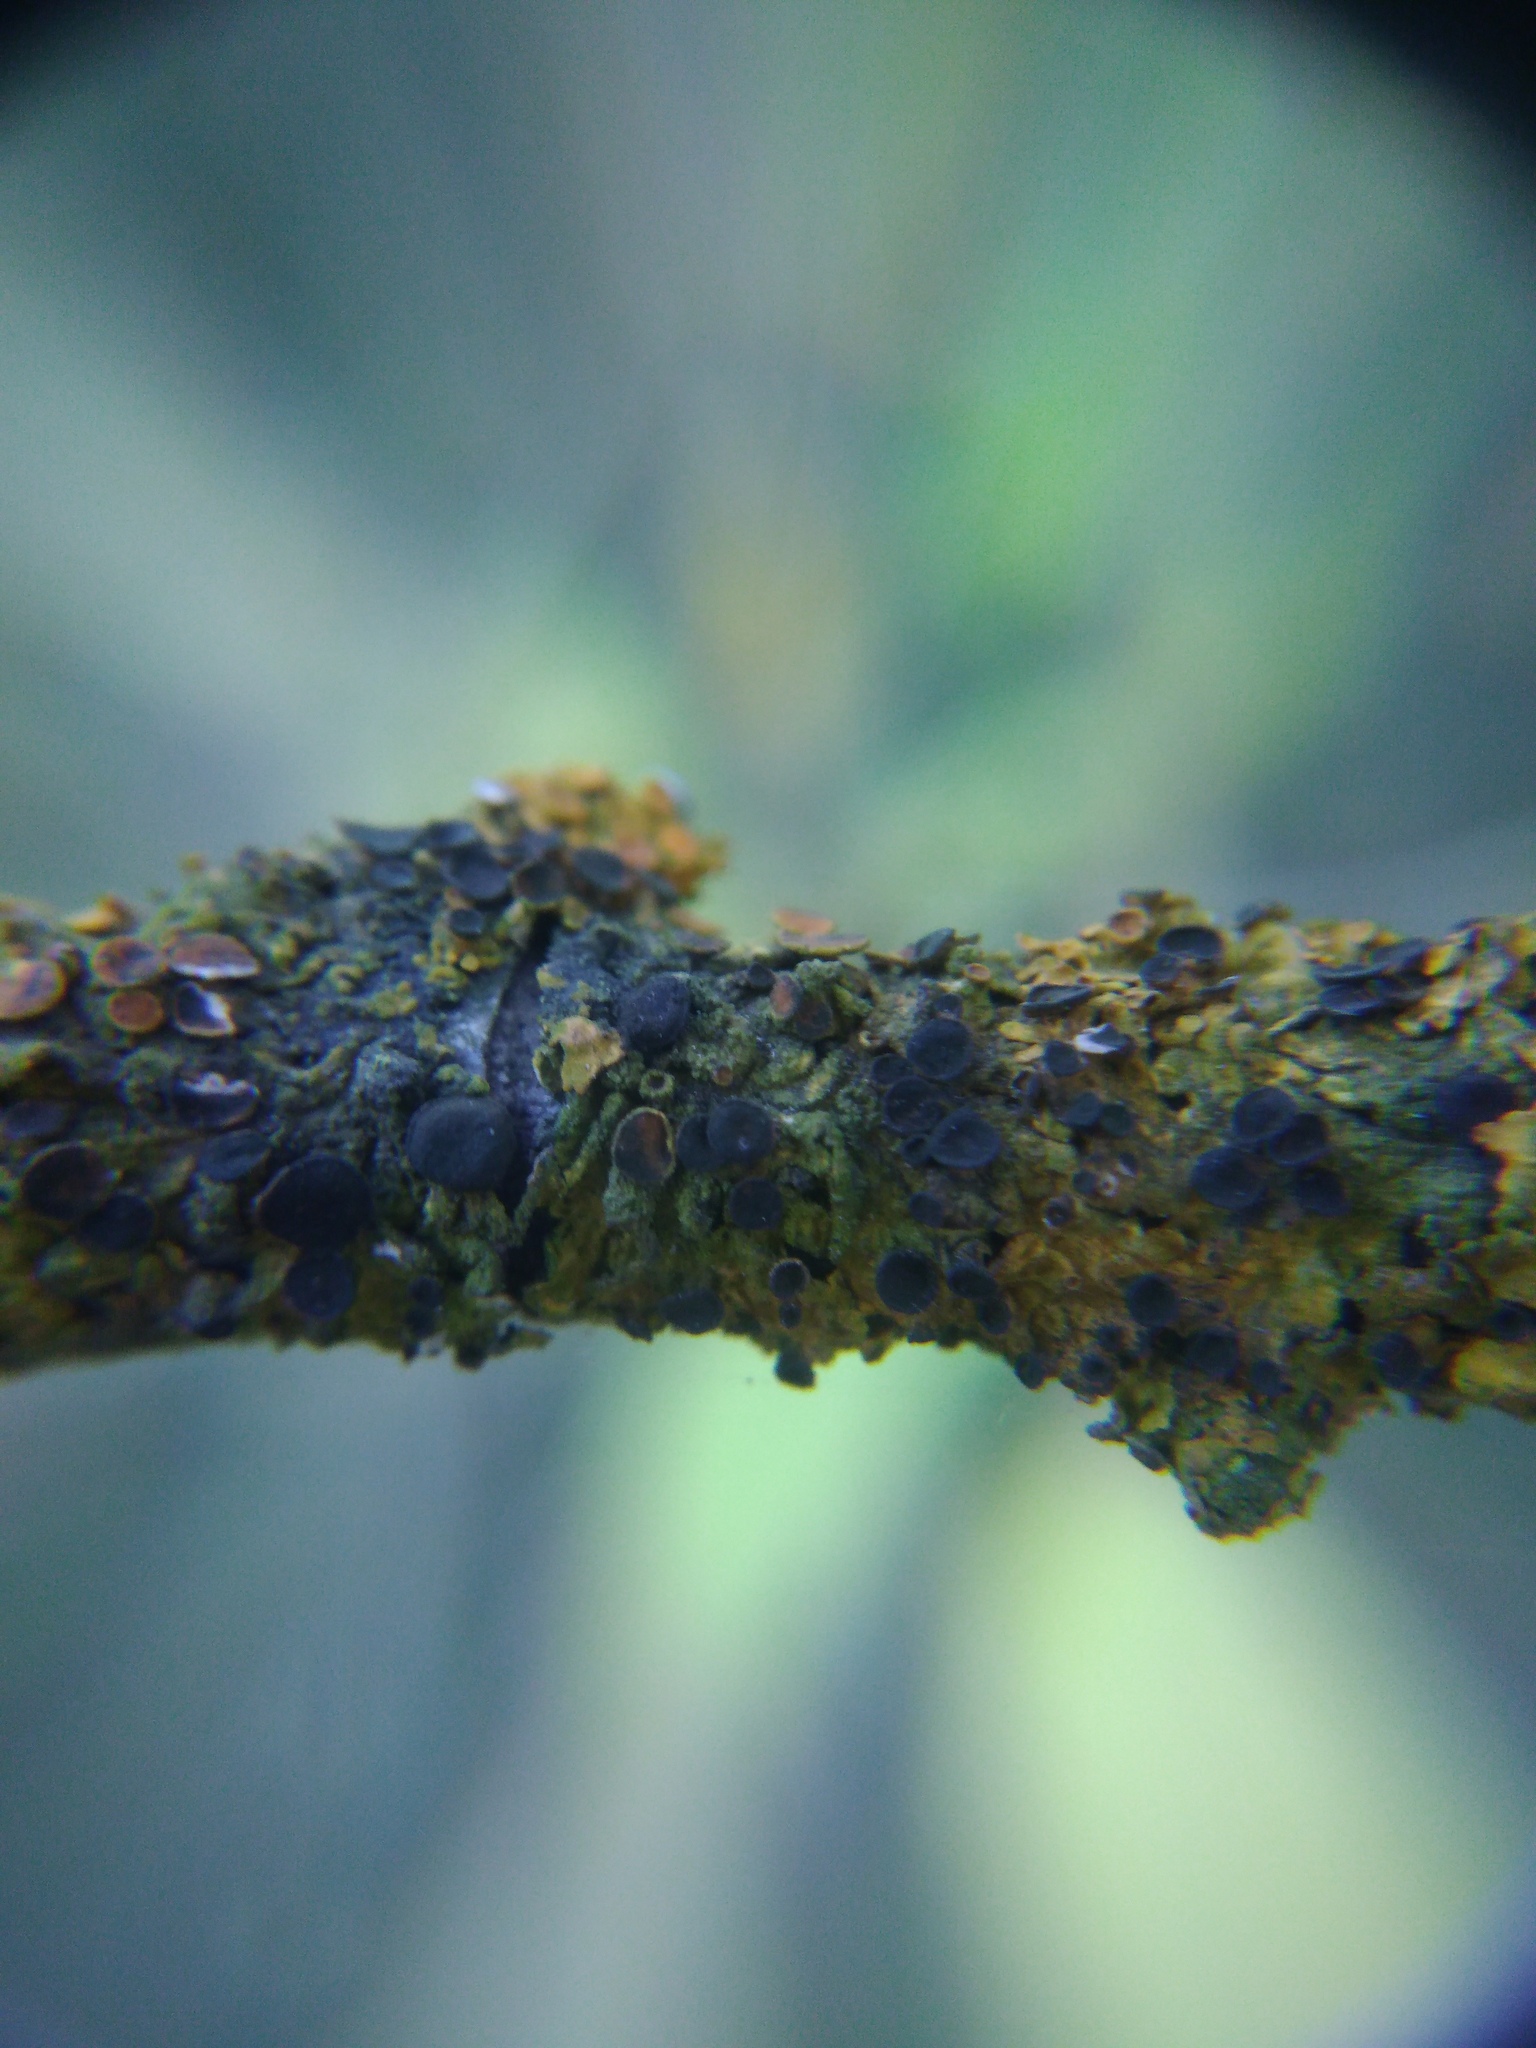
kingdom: Fungi
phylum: Ascomycota
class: Dothideomycetes
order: Mycosphaerellales
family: Teratosphaeriaceae
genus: Xanthoriicola
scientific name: Xanthoriicola physciae
